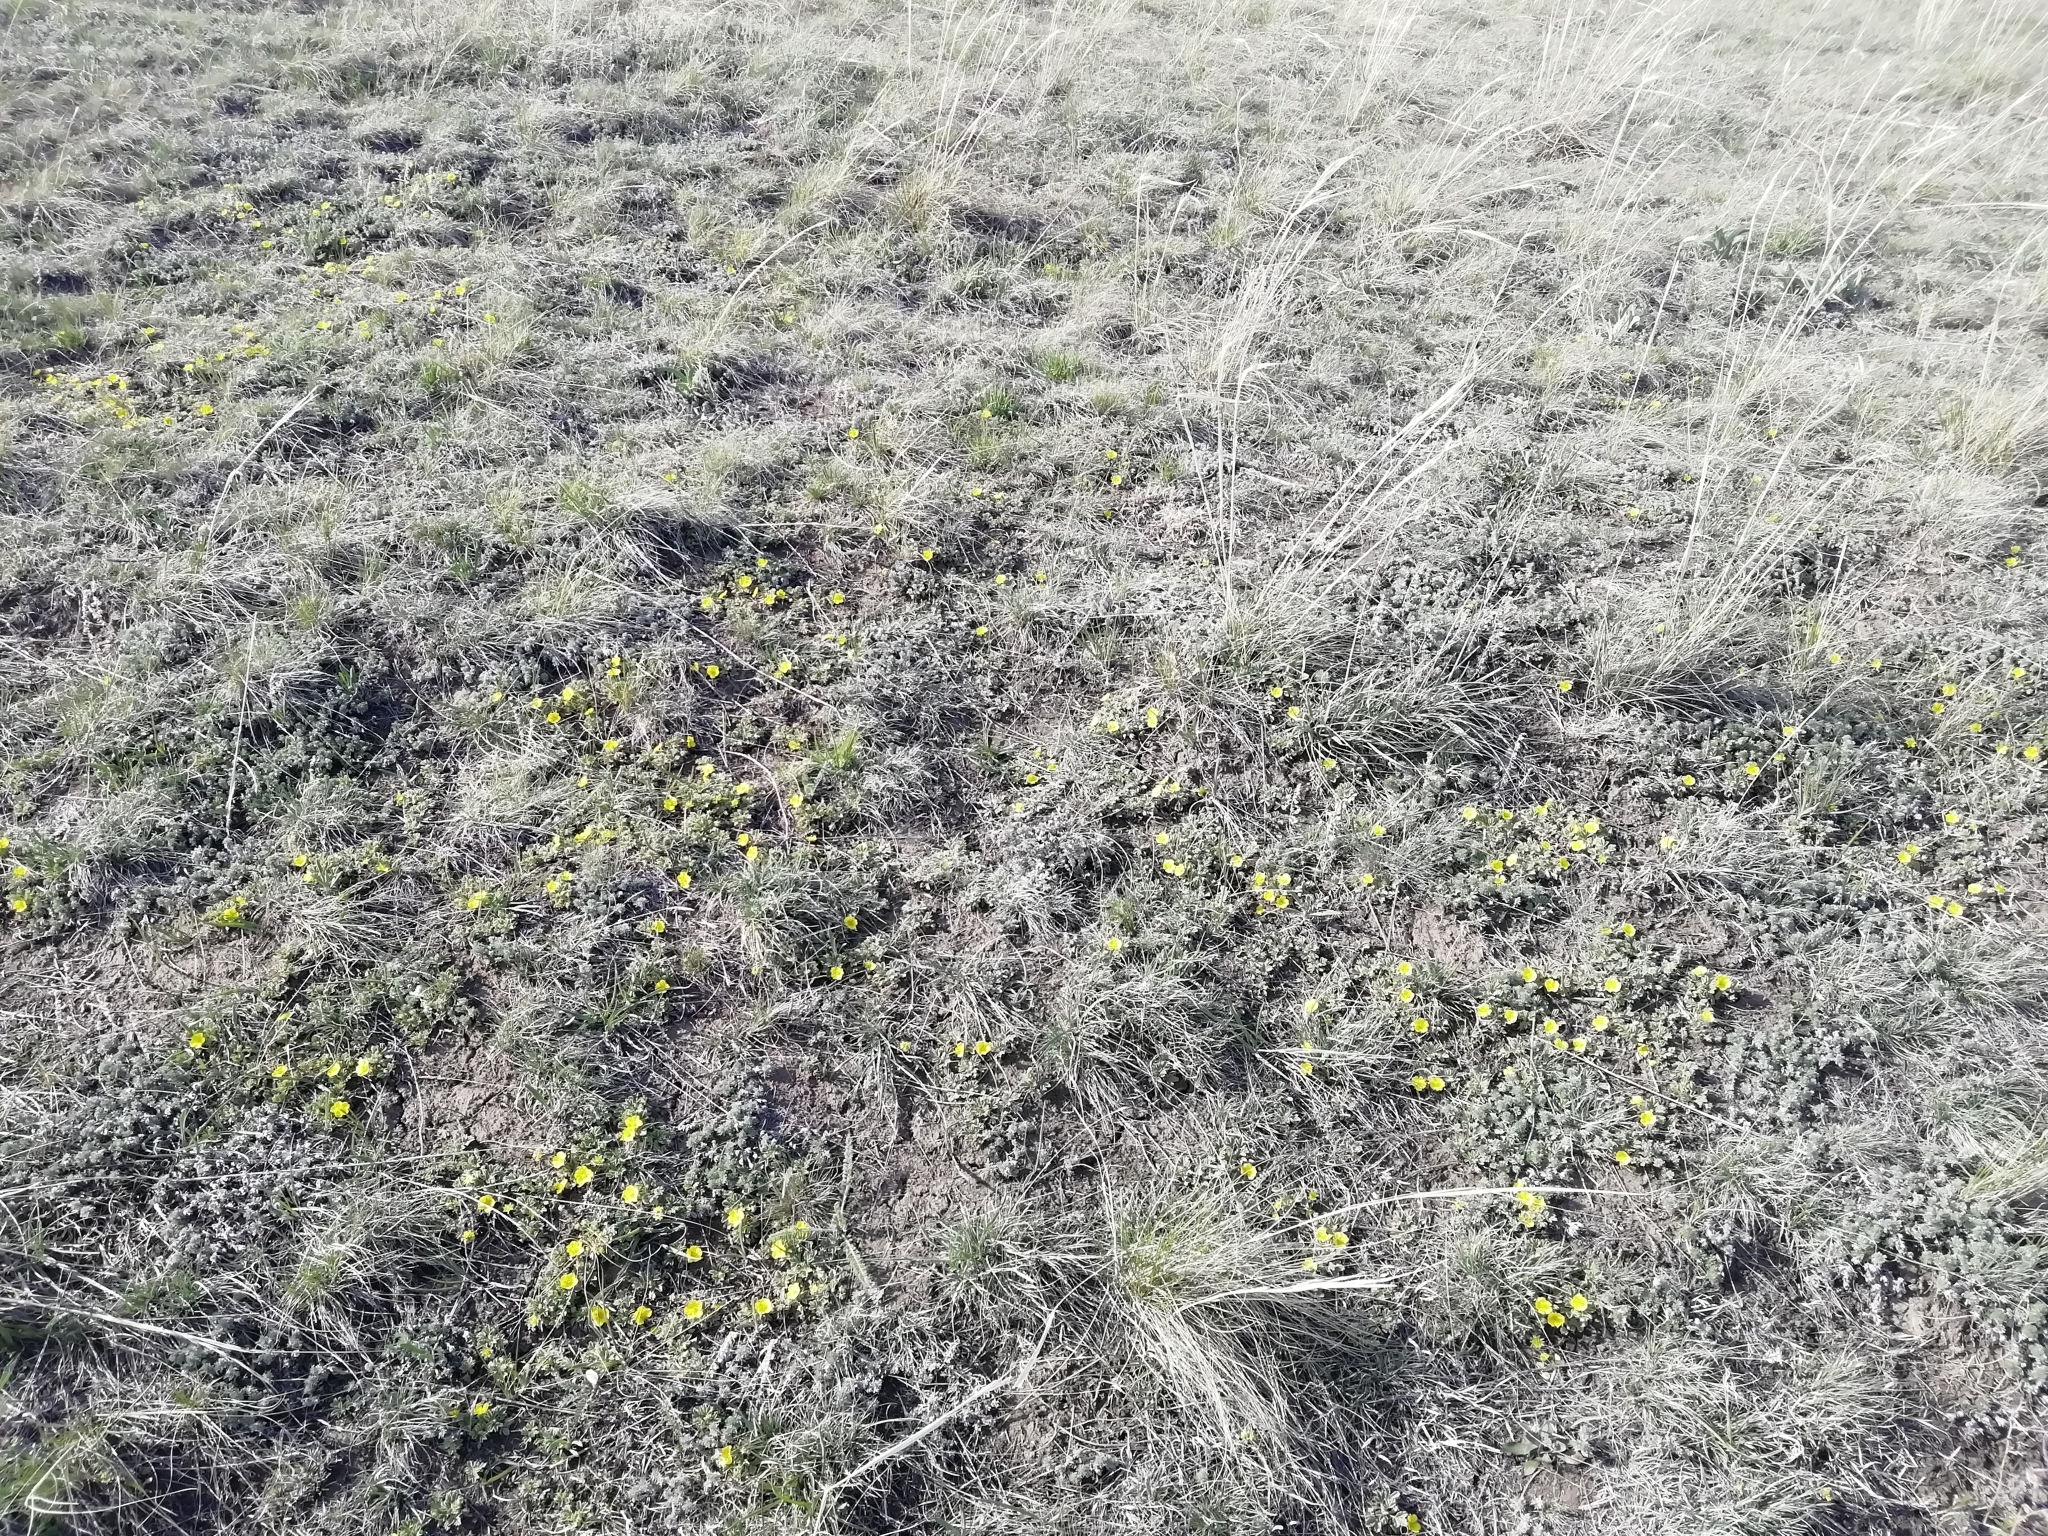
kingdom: Plantae
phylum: Tracheophyta
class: Magnoliopsida
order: Rosales
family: Rosaceae
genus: Potentilla
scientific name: Potentilla acaulis
